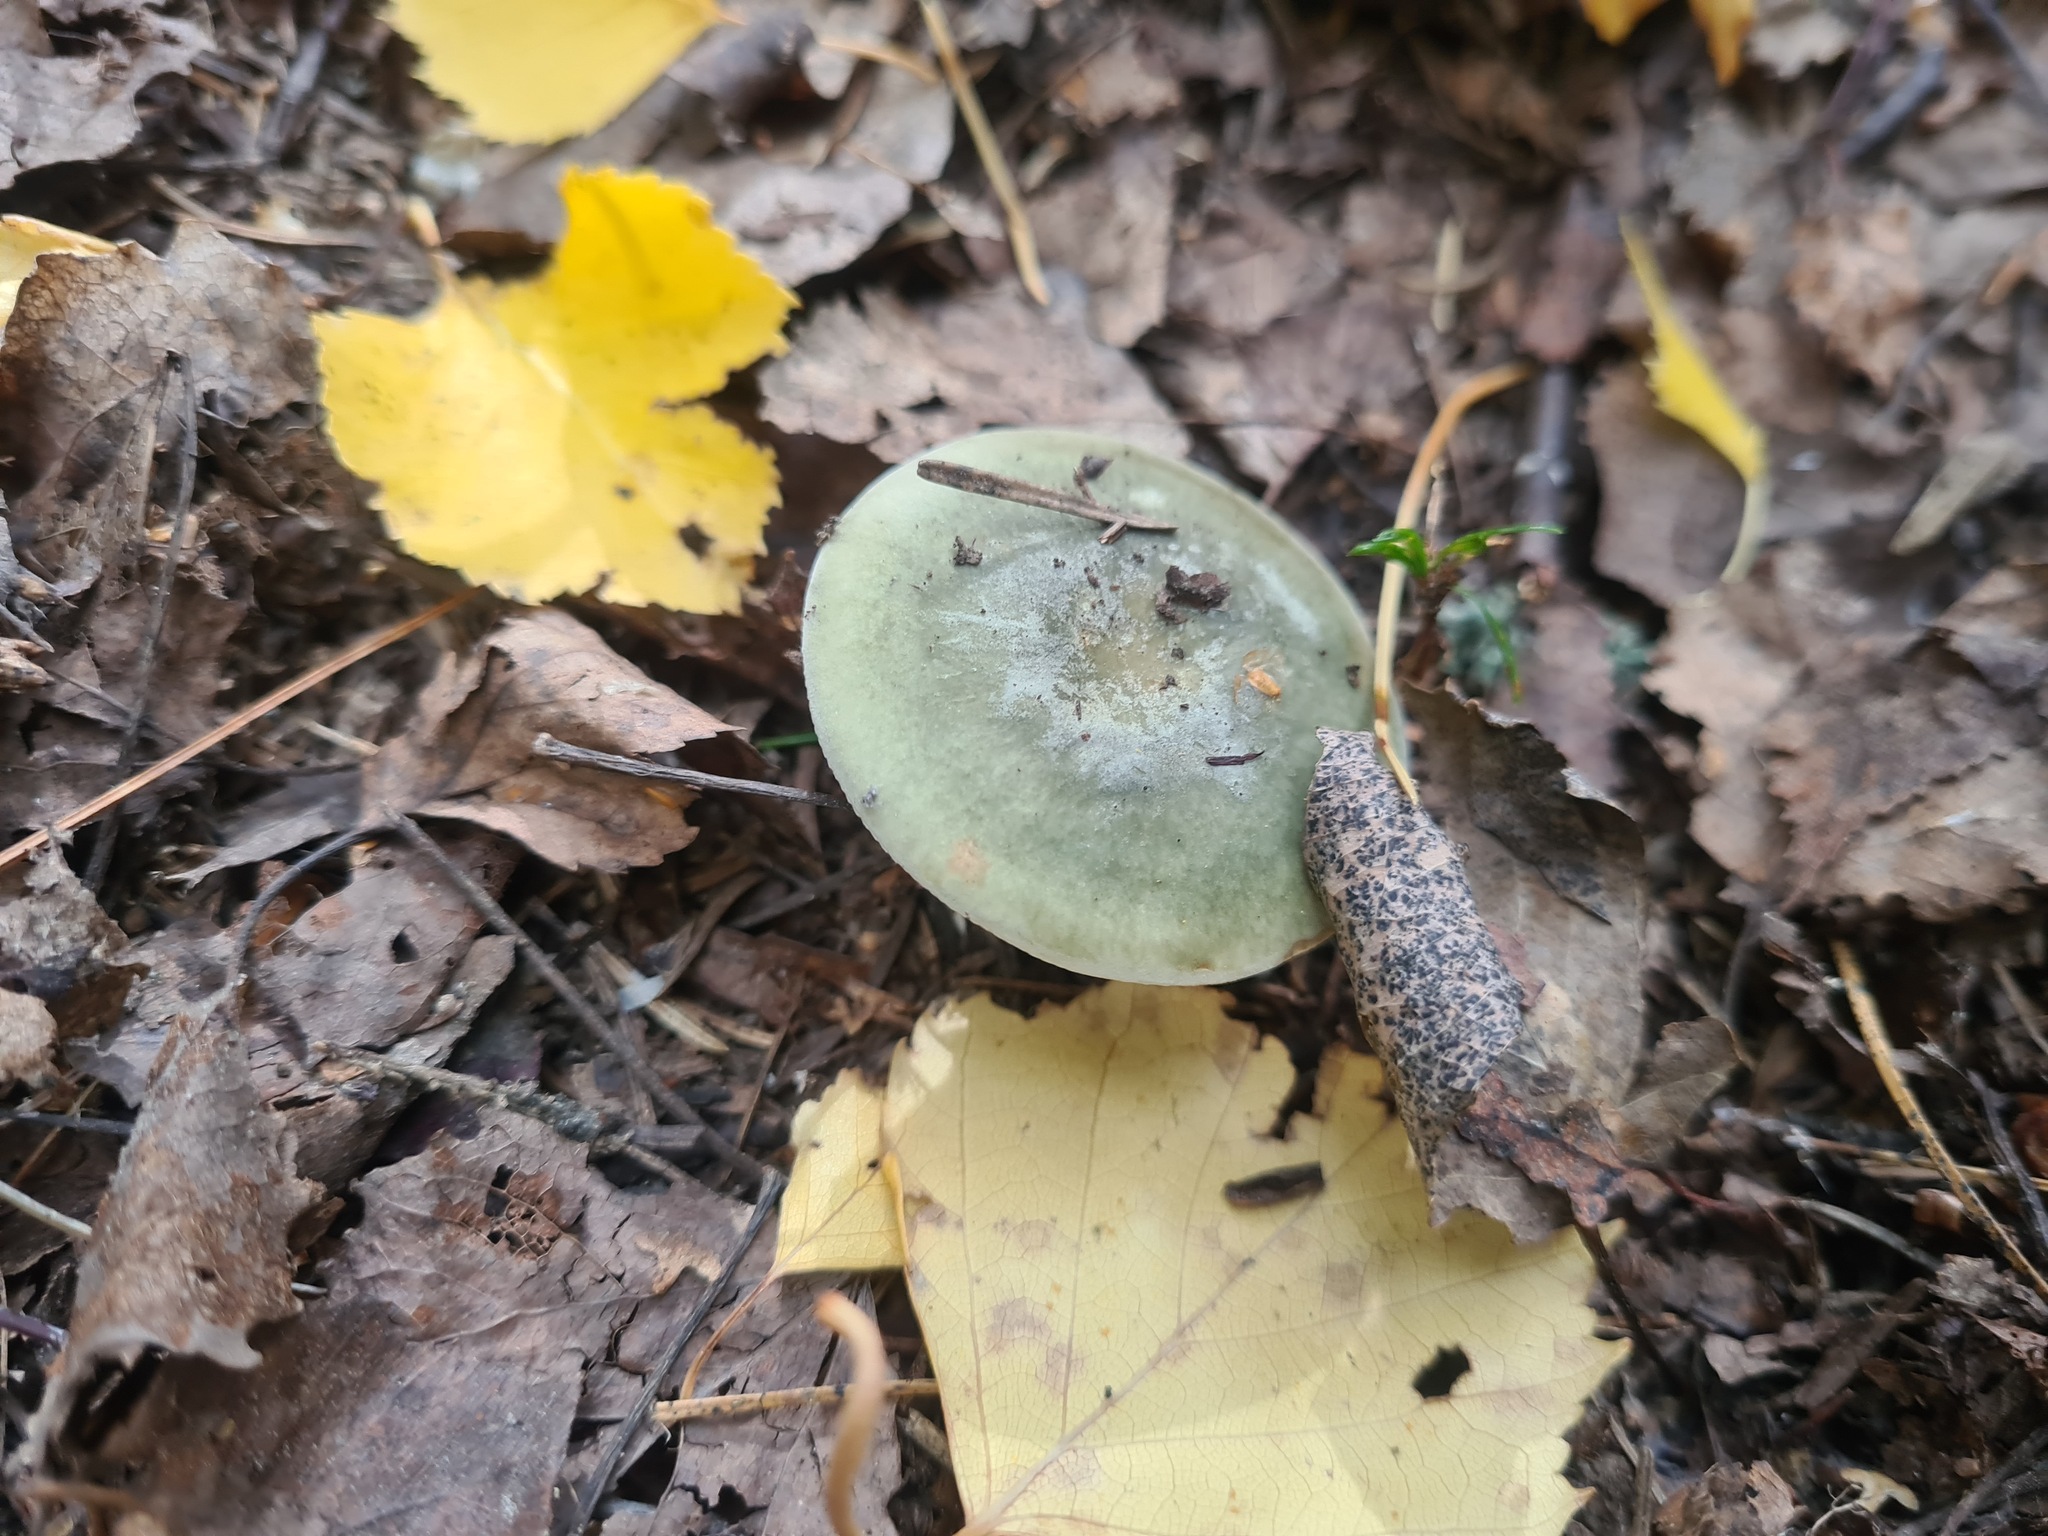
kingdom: Fungi
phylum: Basidiomycota
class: Agaricomycetes
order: Russulales
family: Russulaceae
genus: Russula
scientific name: Russula aeruginea
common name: Green brittlegill
